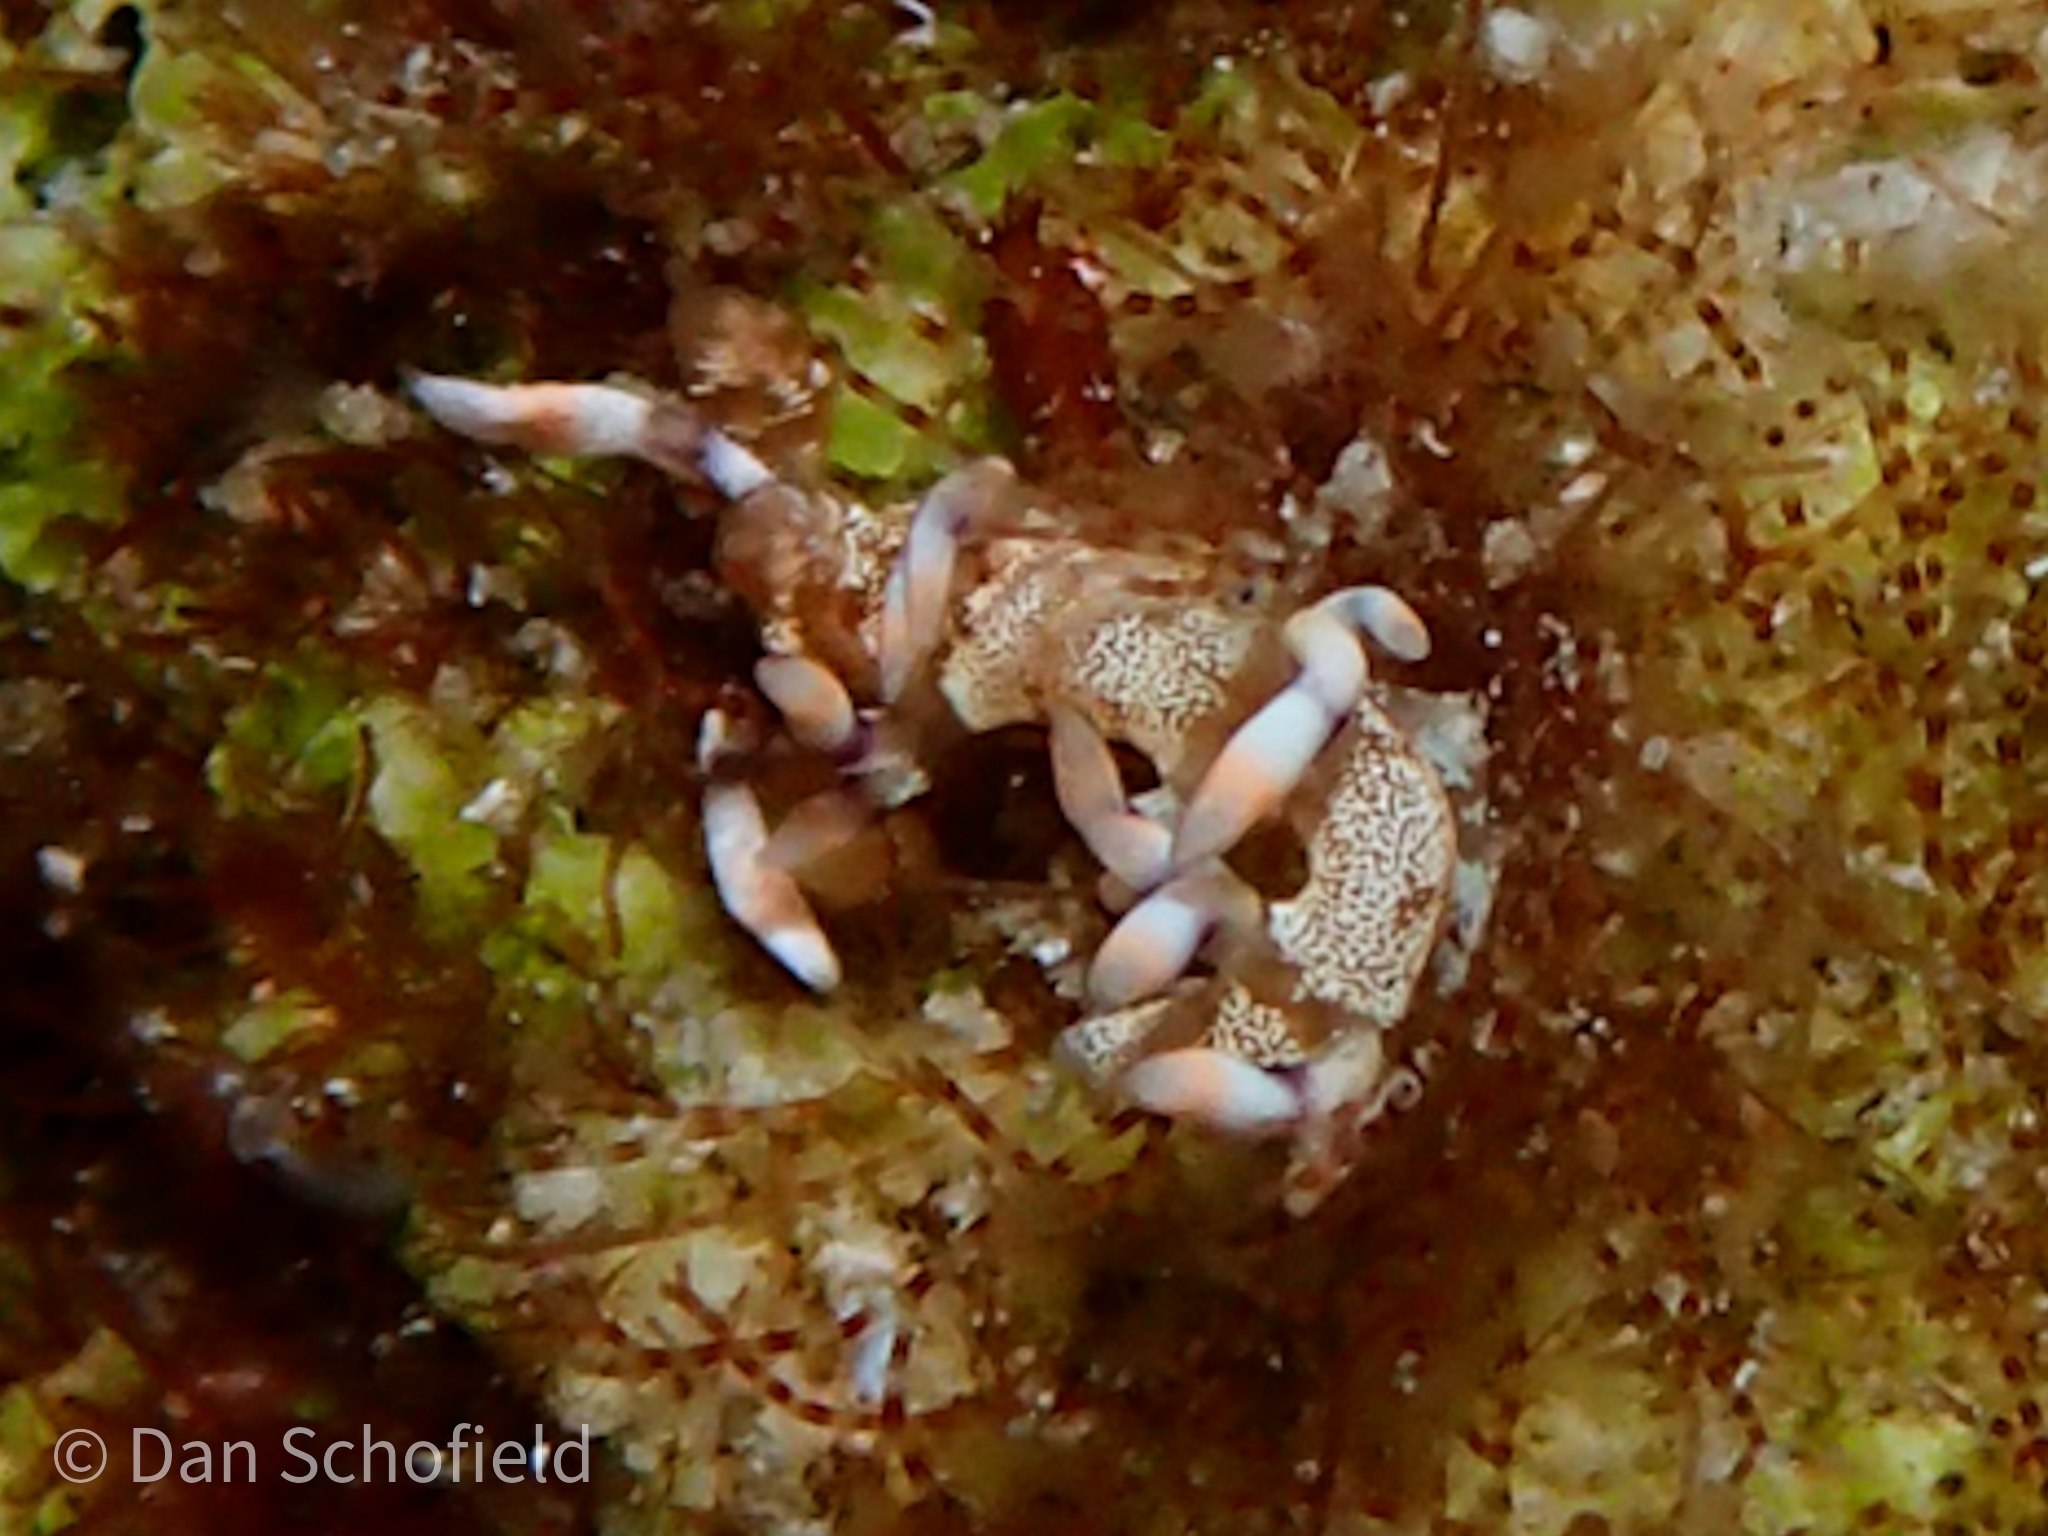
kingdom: Animalia
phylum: Mollusca
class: Gastropoda
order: Nudibranchia
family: Samlidae
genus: Samla
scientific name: Samla riwo
